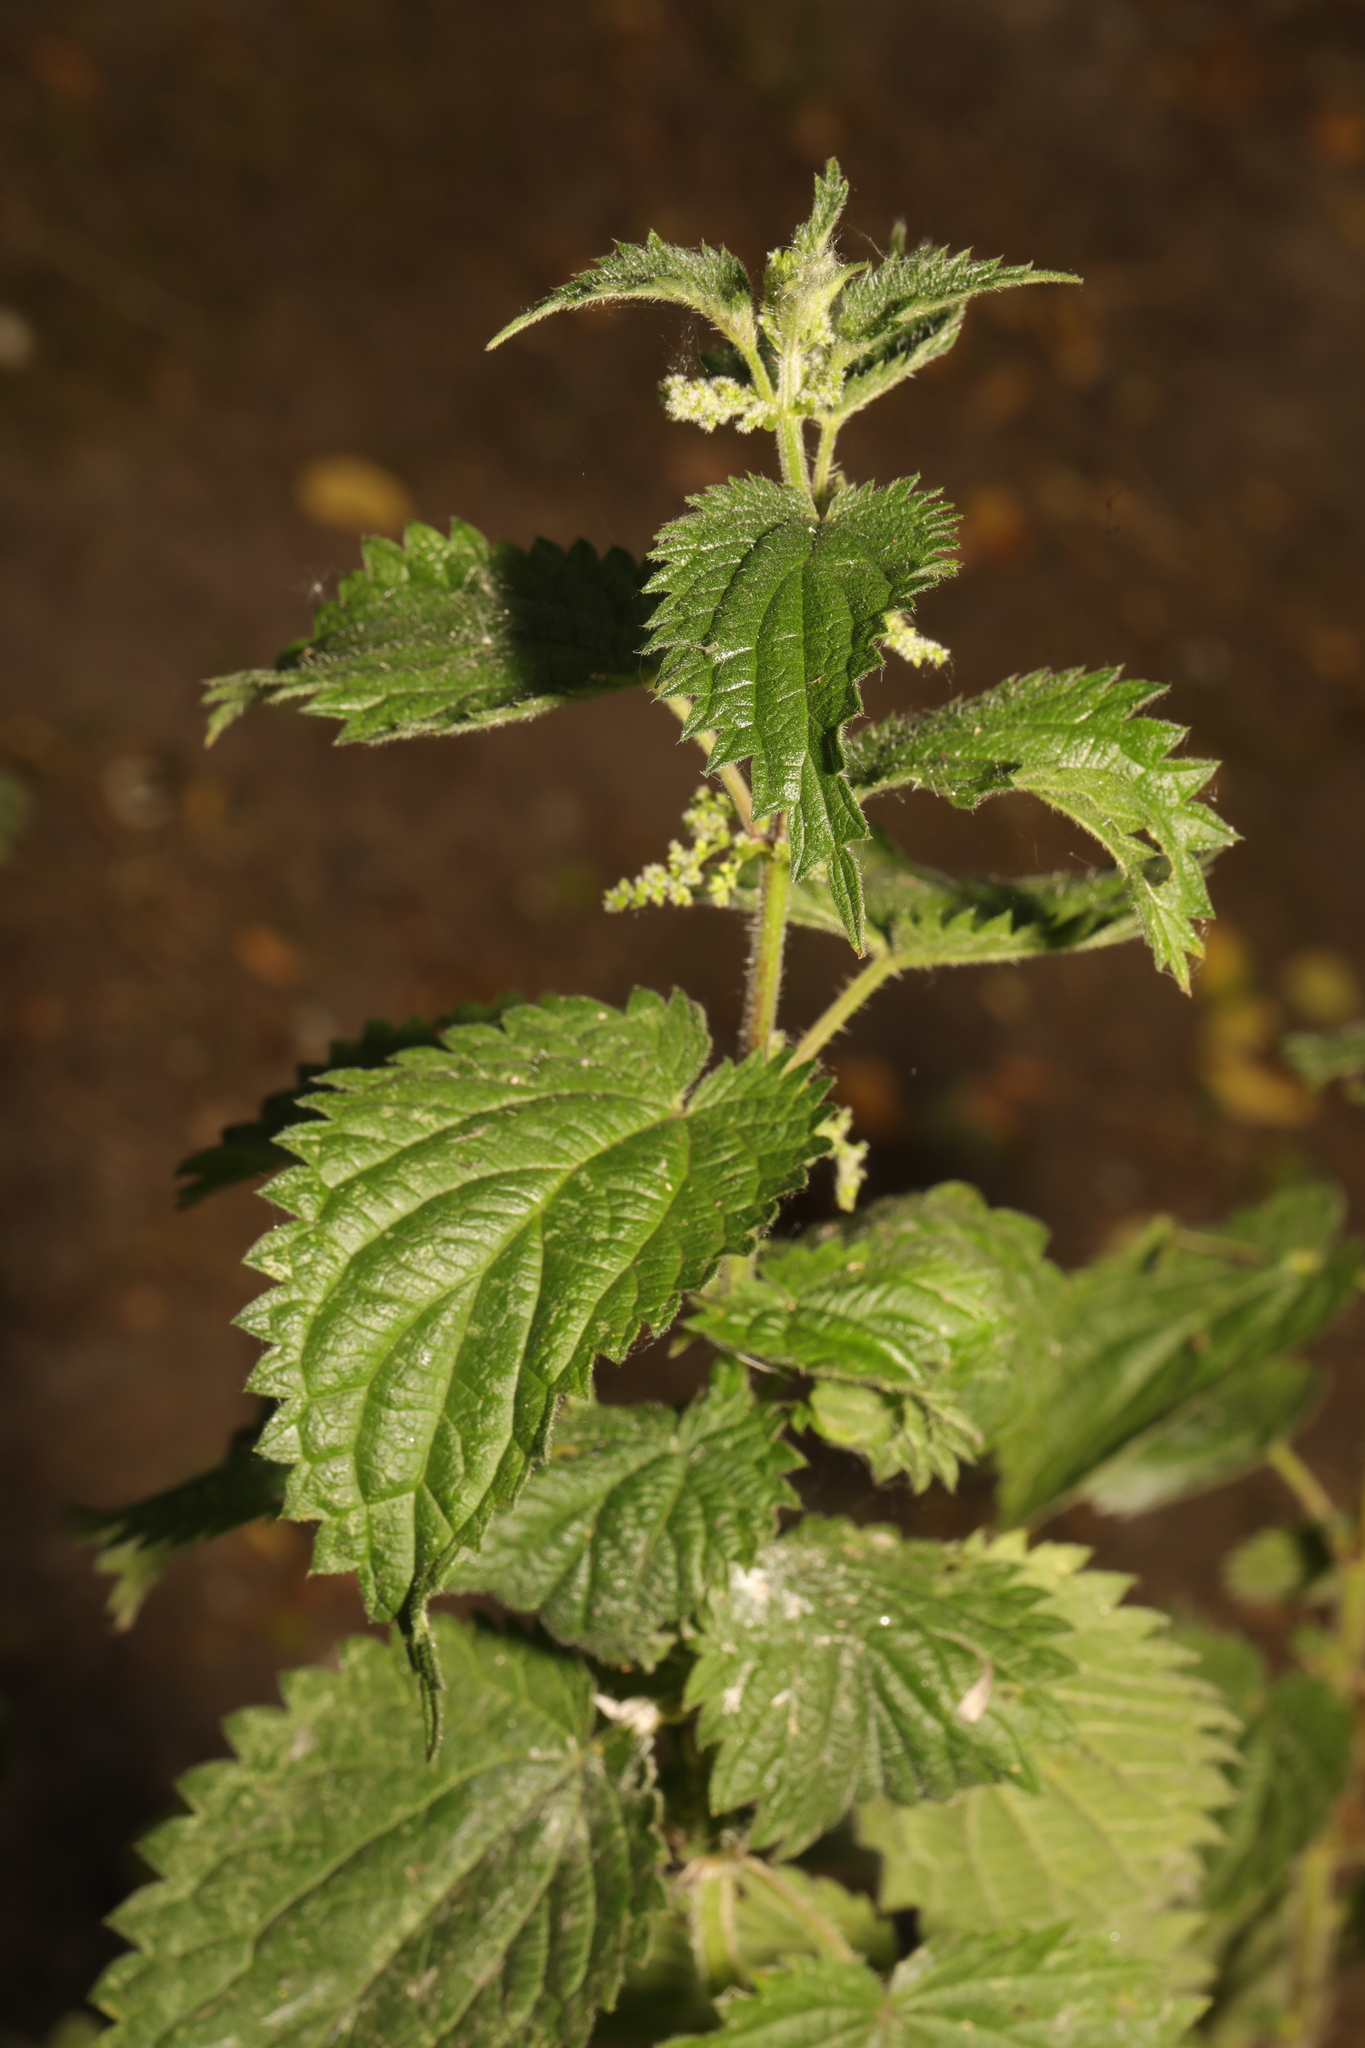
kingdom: Plantae
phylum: Tracheophyta
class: Magnoliopsida
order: Rosales
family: Urticaceae
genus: Urtica
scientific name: Urtica dioica
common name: Common nettle
